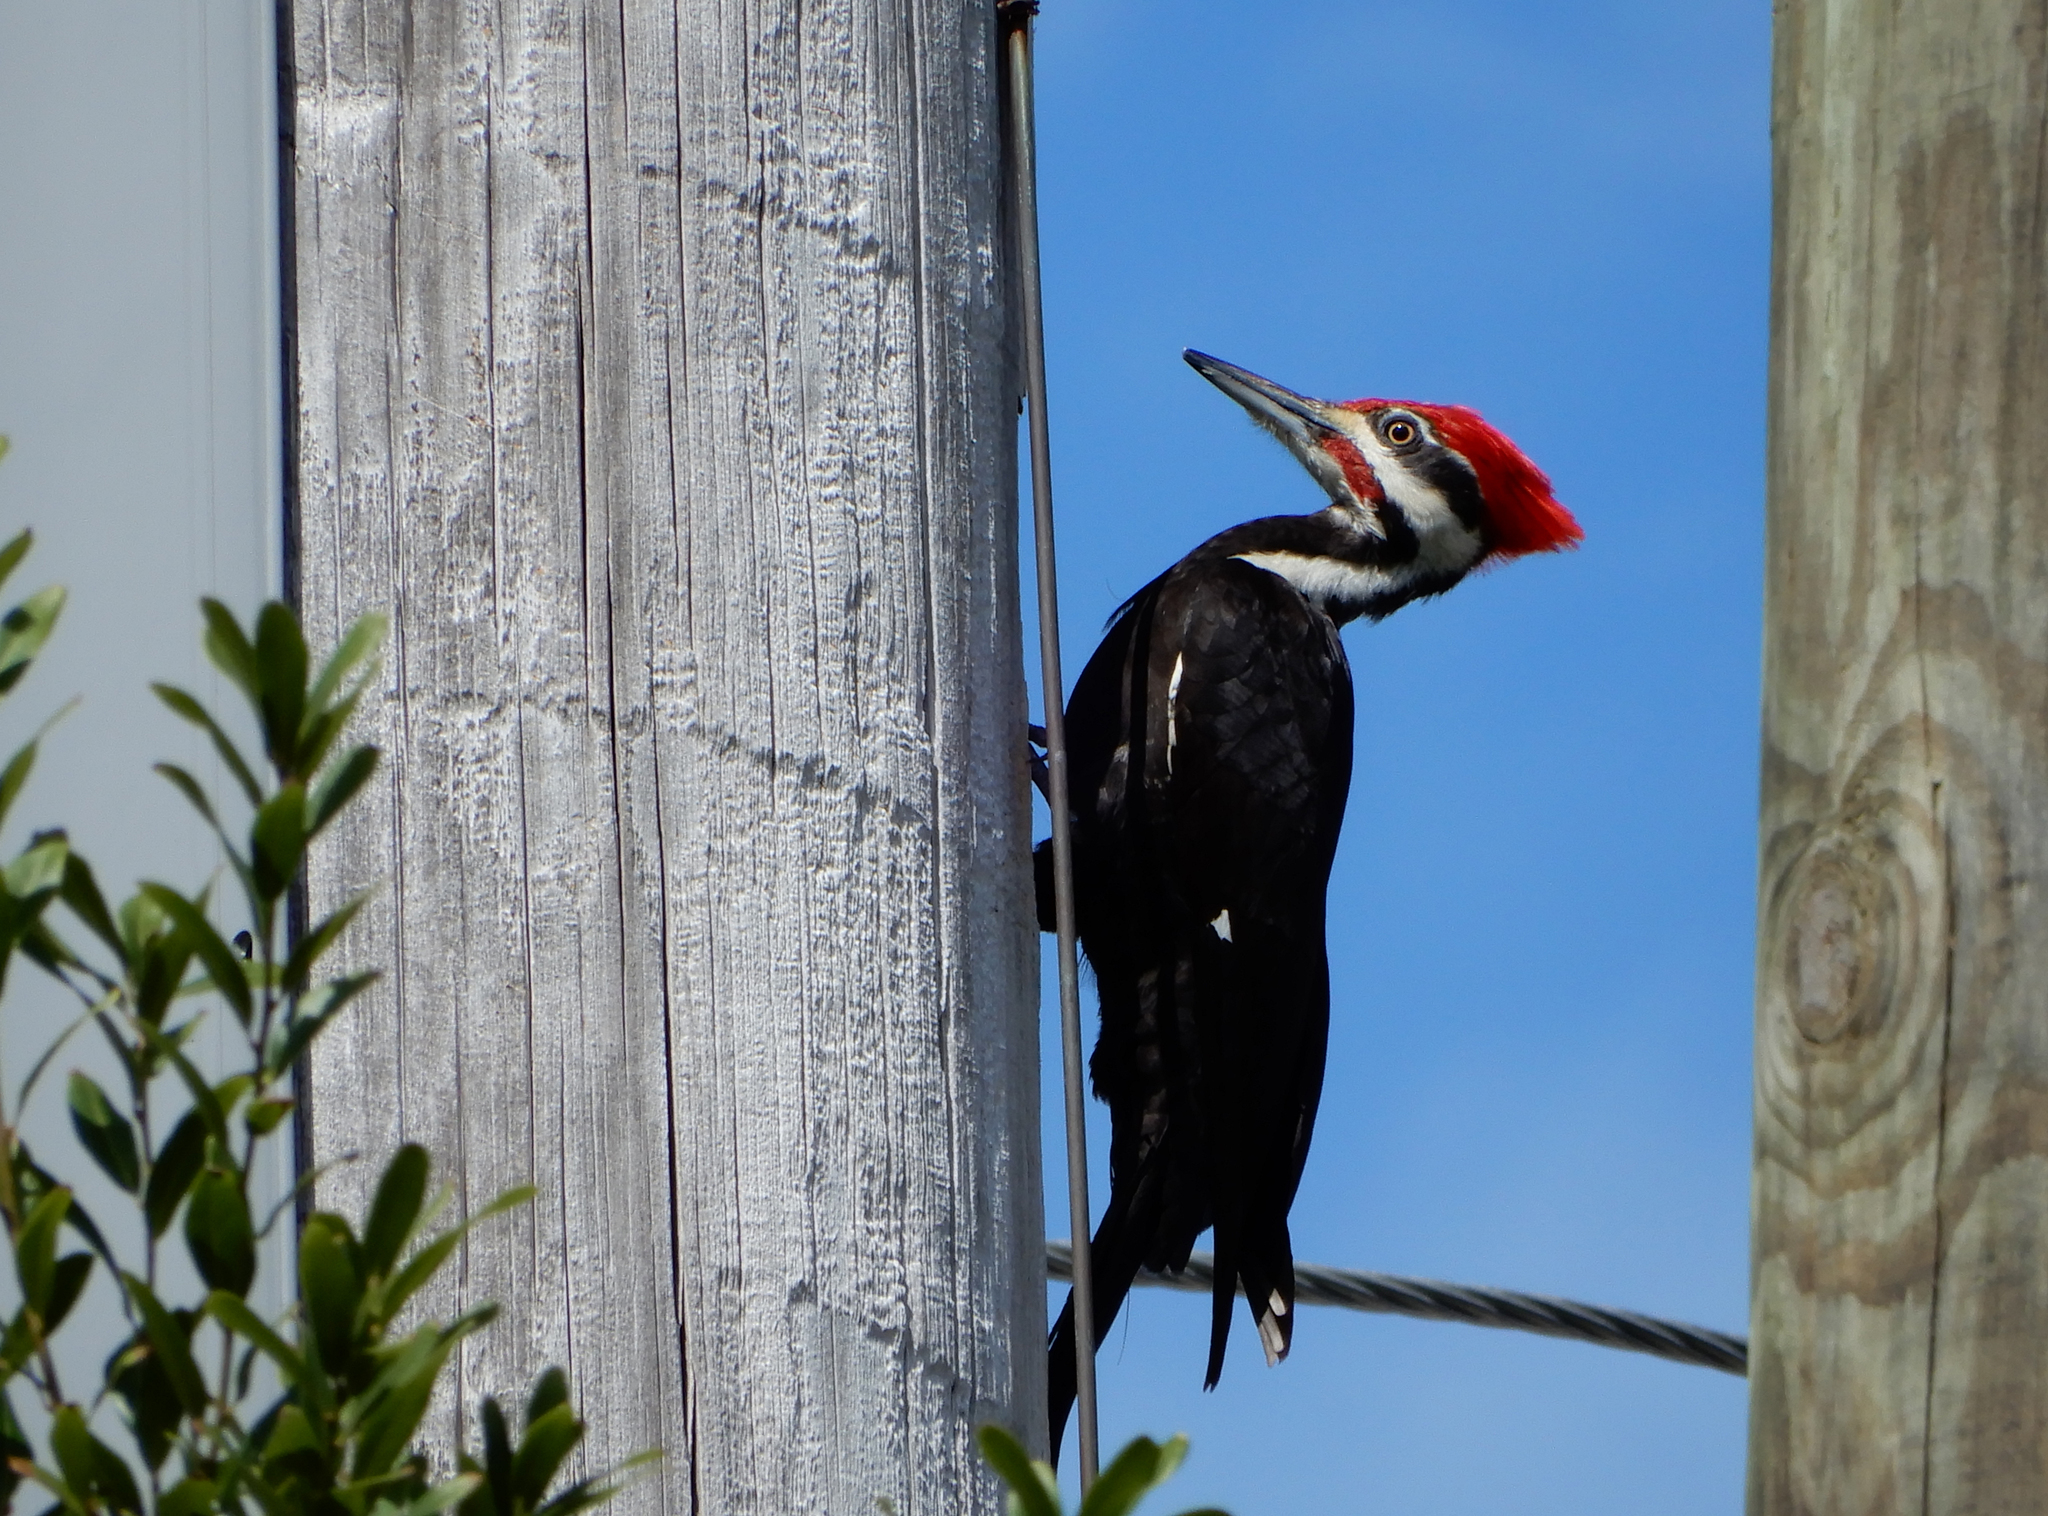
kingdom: Animalia
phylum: Chordata
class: Aves
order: Piciformes
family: Picidae
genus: Dryocopus
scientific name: Dryocopus pileatus
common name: Pileated woodpecker
